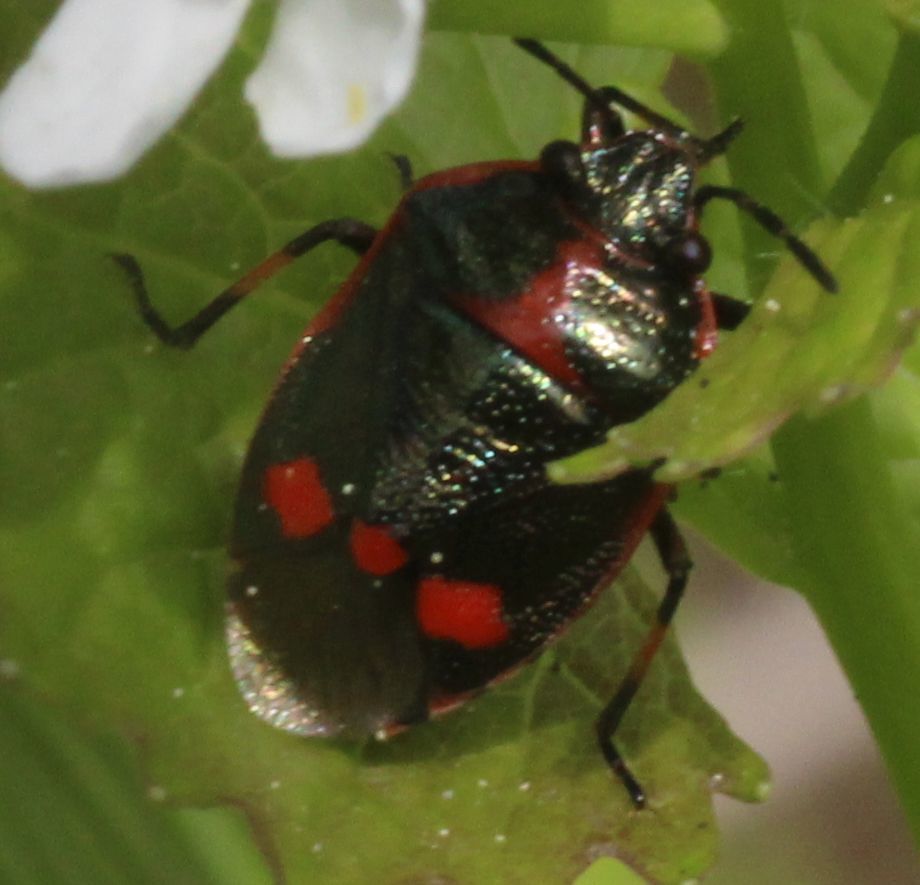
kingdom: Animalia
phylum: Arthropoda
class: Insecta
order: Hemiptera
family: Pentatomidae
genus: Eurydema
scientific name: Eurydema oleracea
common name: Cabbage bug
